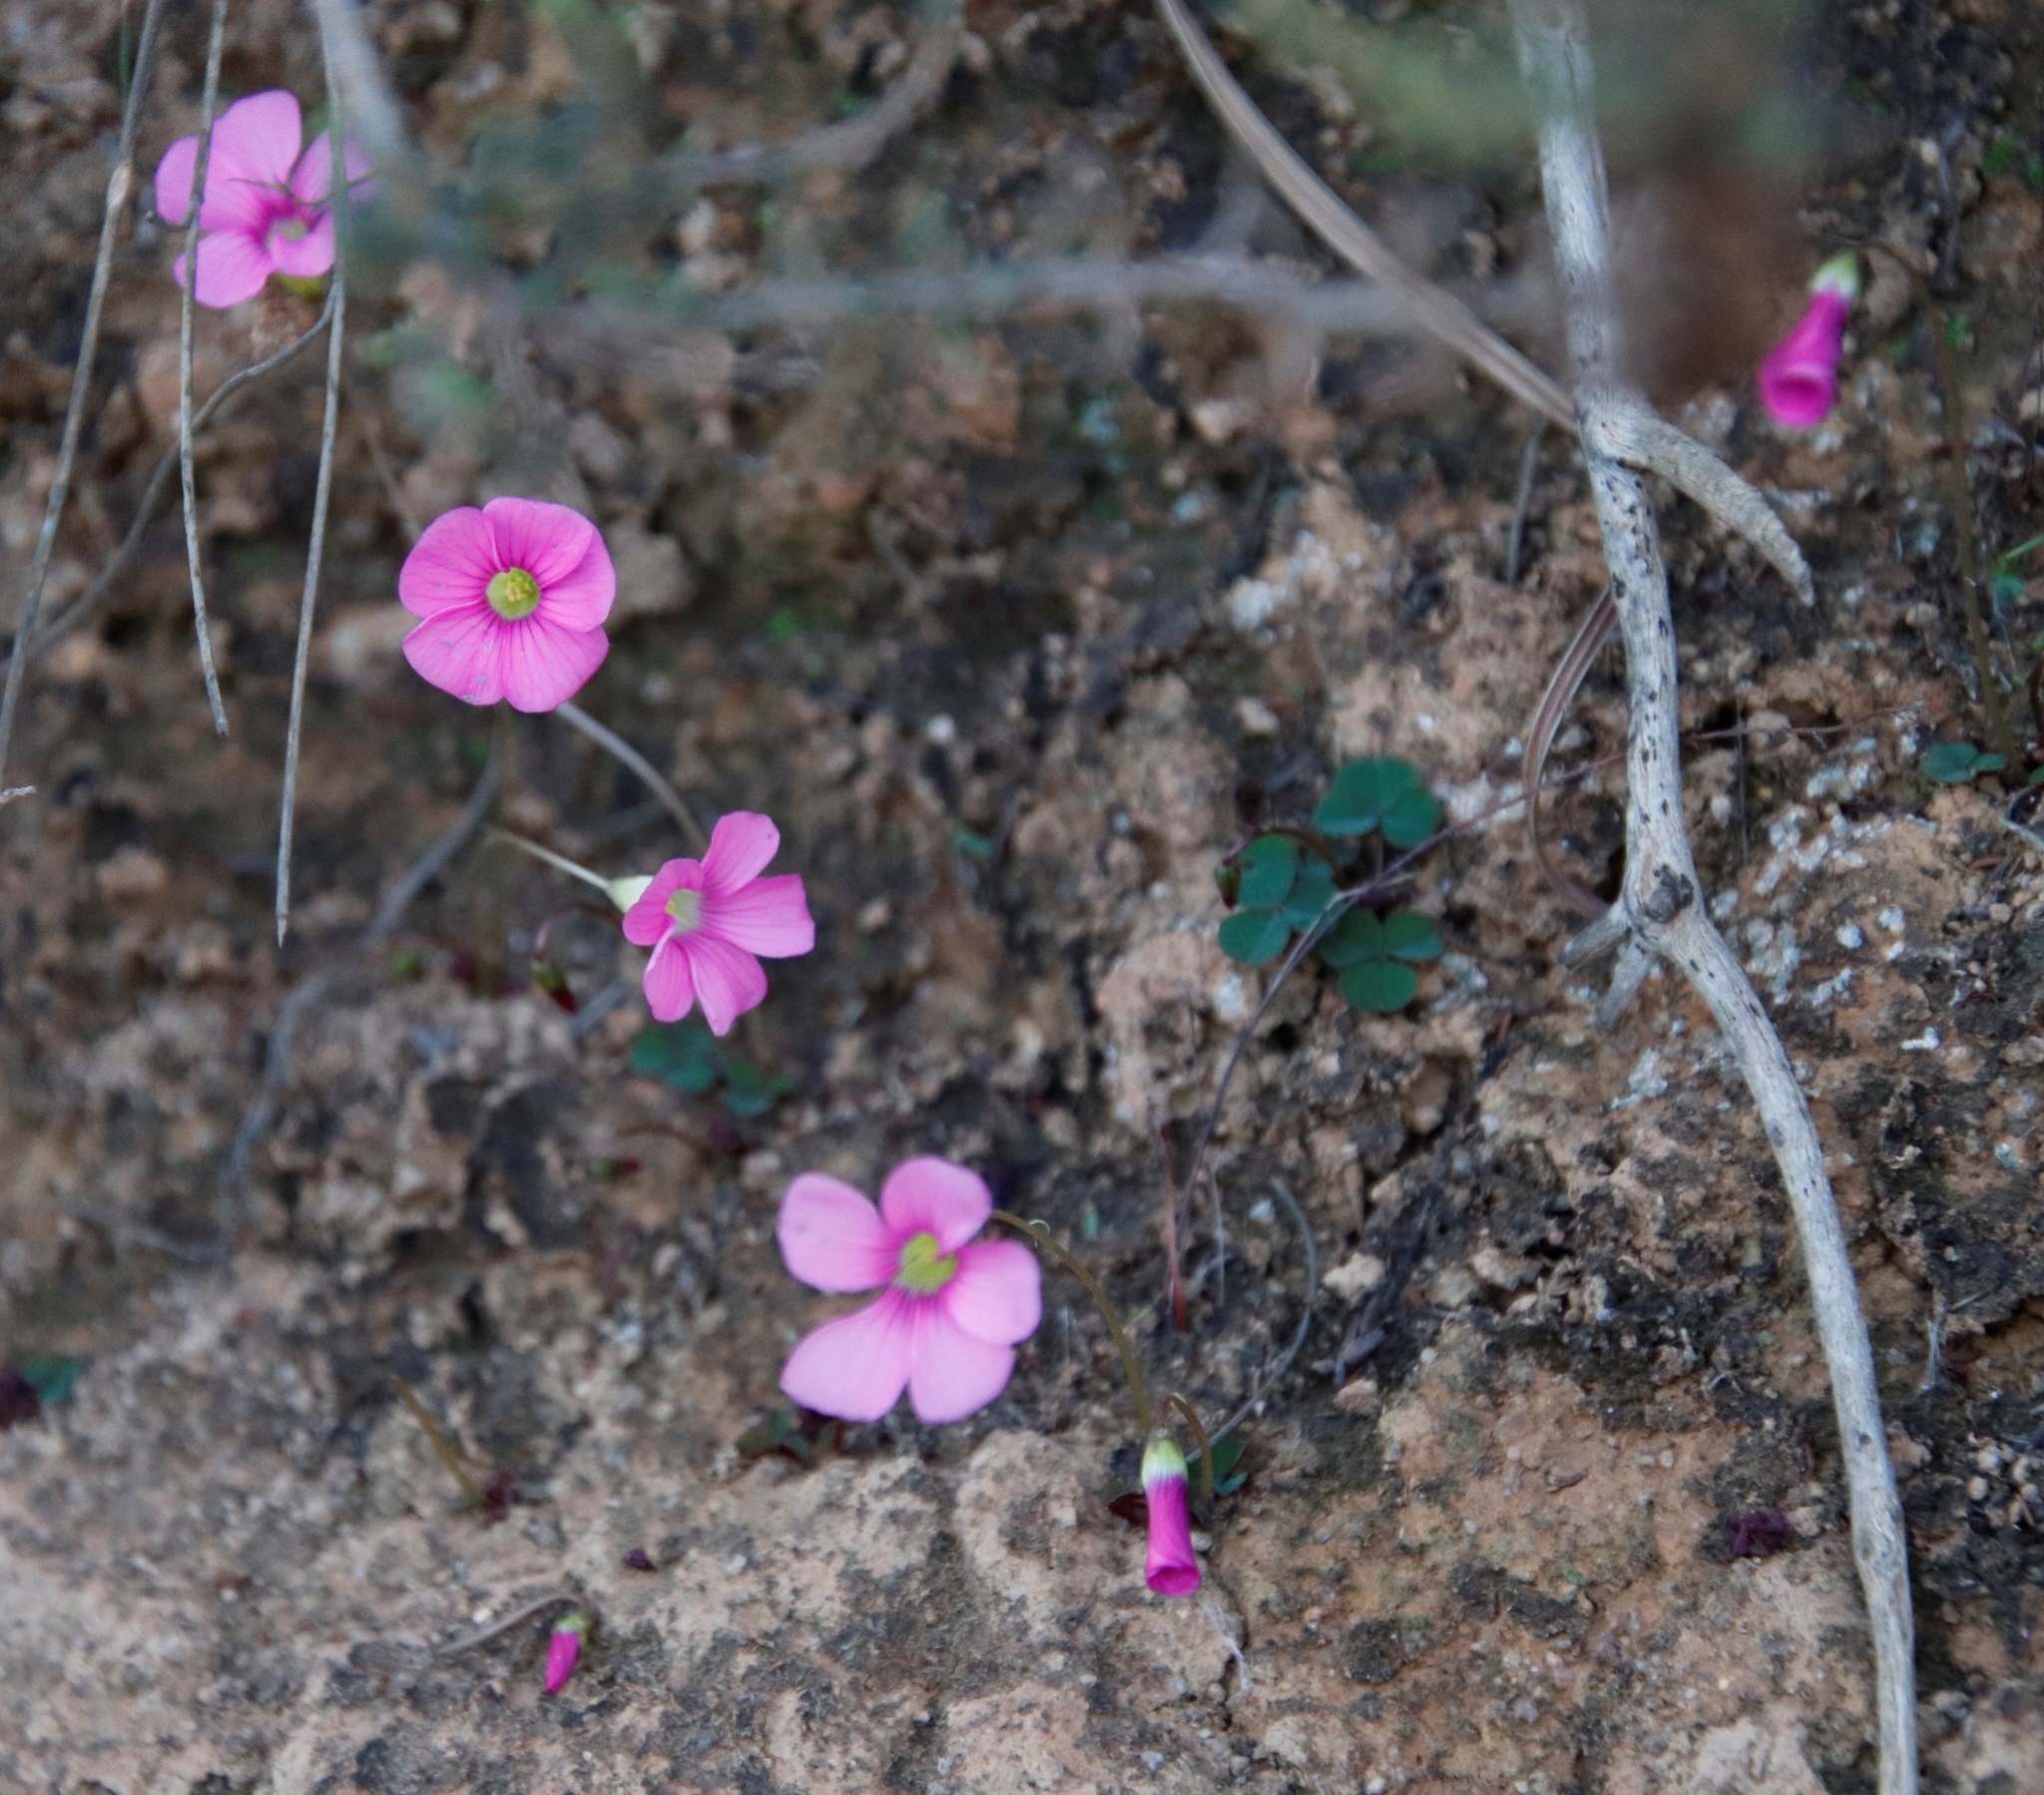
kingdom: Plantae
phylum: Tracheophyta
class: Magnoliopsida
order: Oxalidales
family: Oxalidaceae
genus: Oxalis
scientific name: Oxalis commutata
